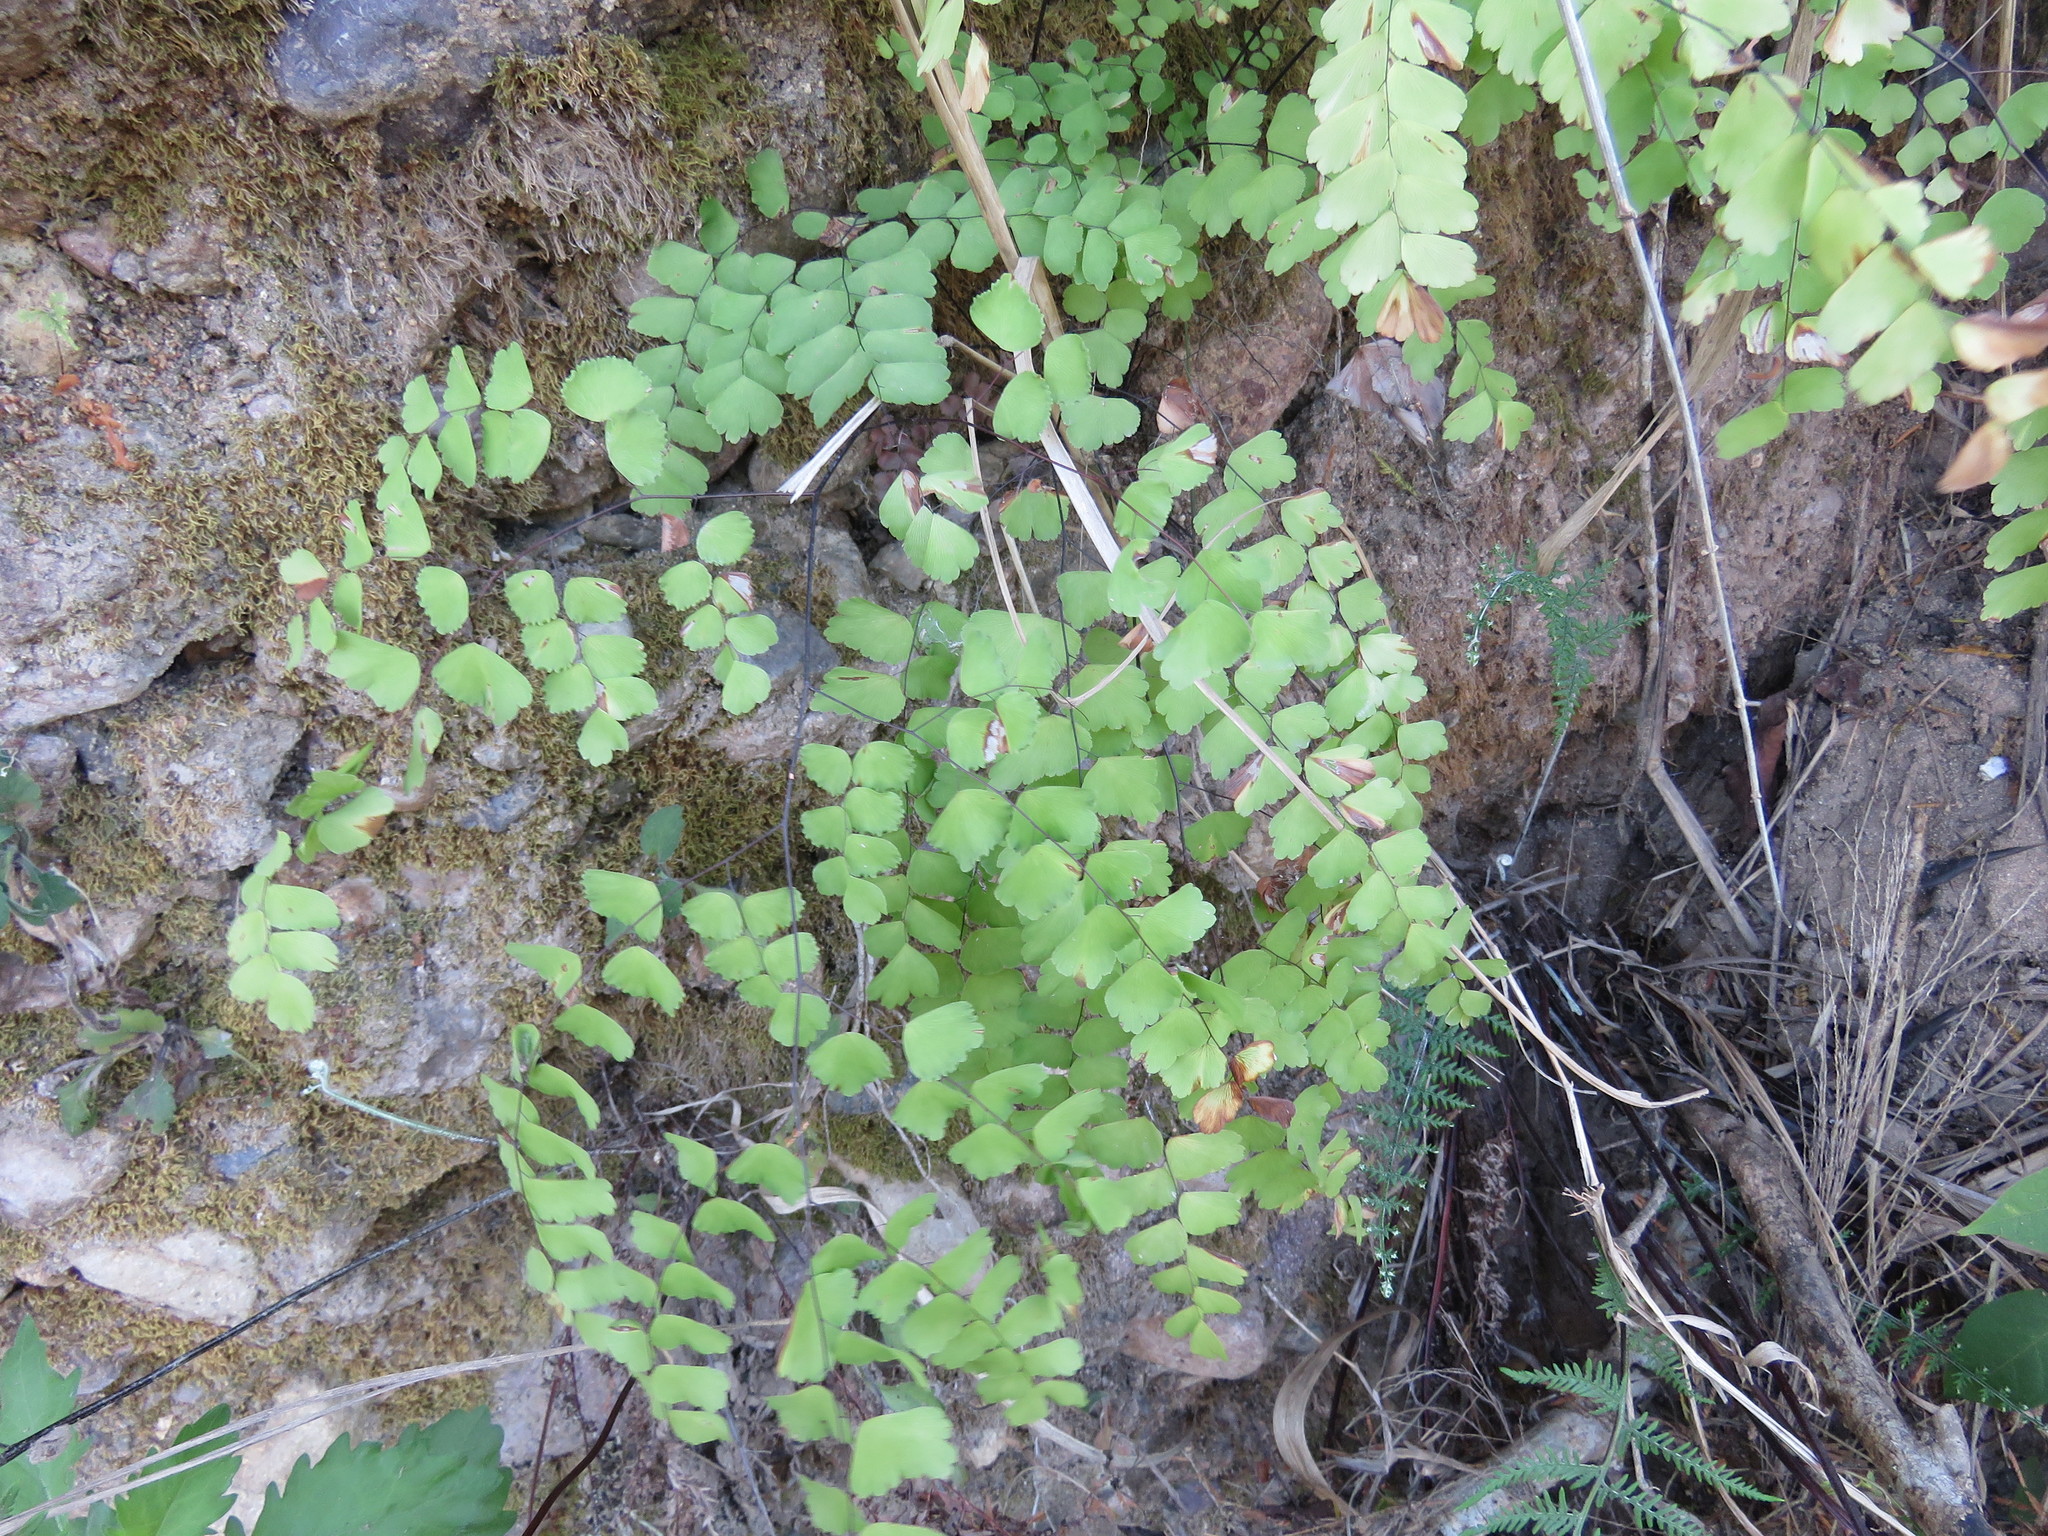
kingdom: Plantae
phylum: Tracheophyta
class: Polypodiopsida
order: Polypodiales
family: Pteridaceae
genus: Adiantum
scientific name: Adiantum amplum
